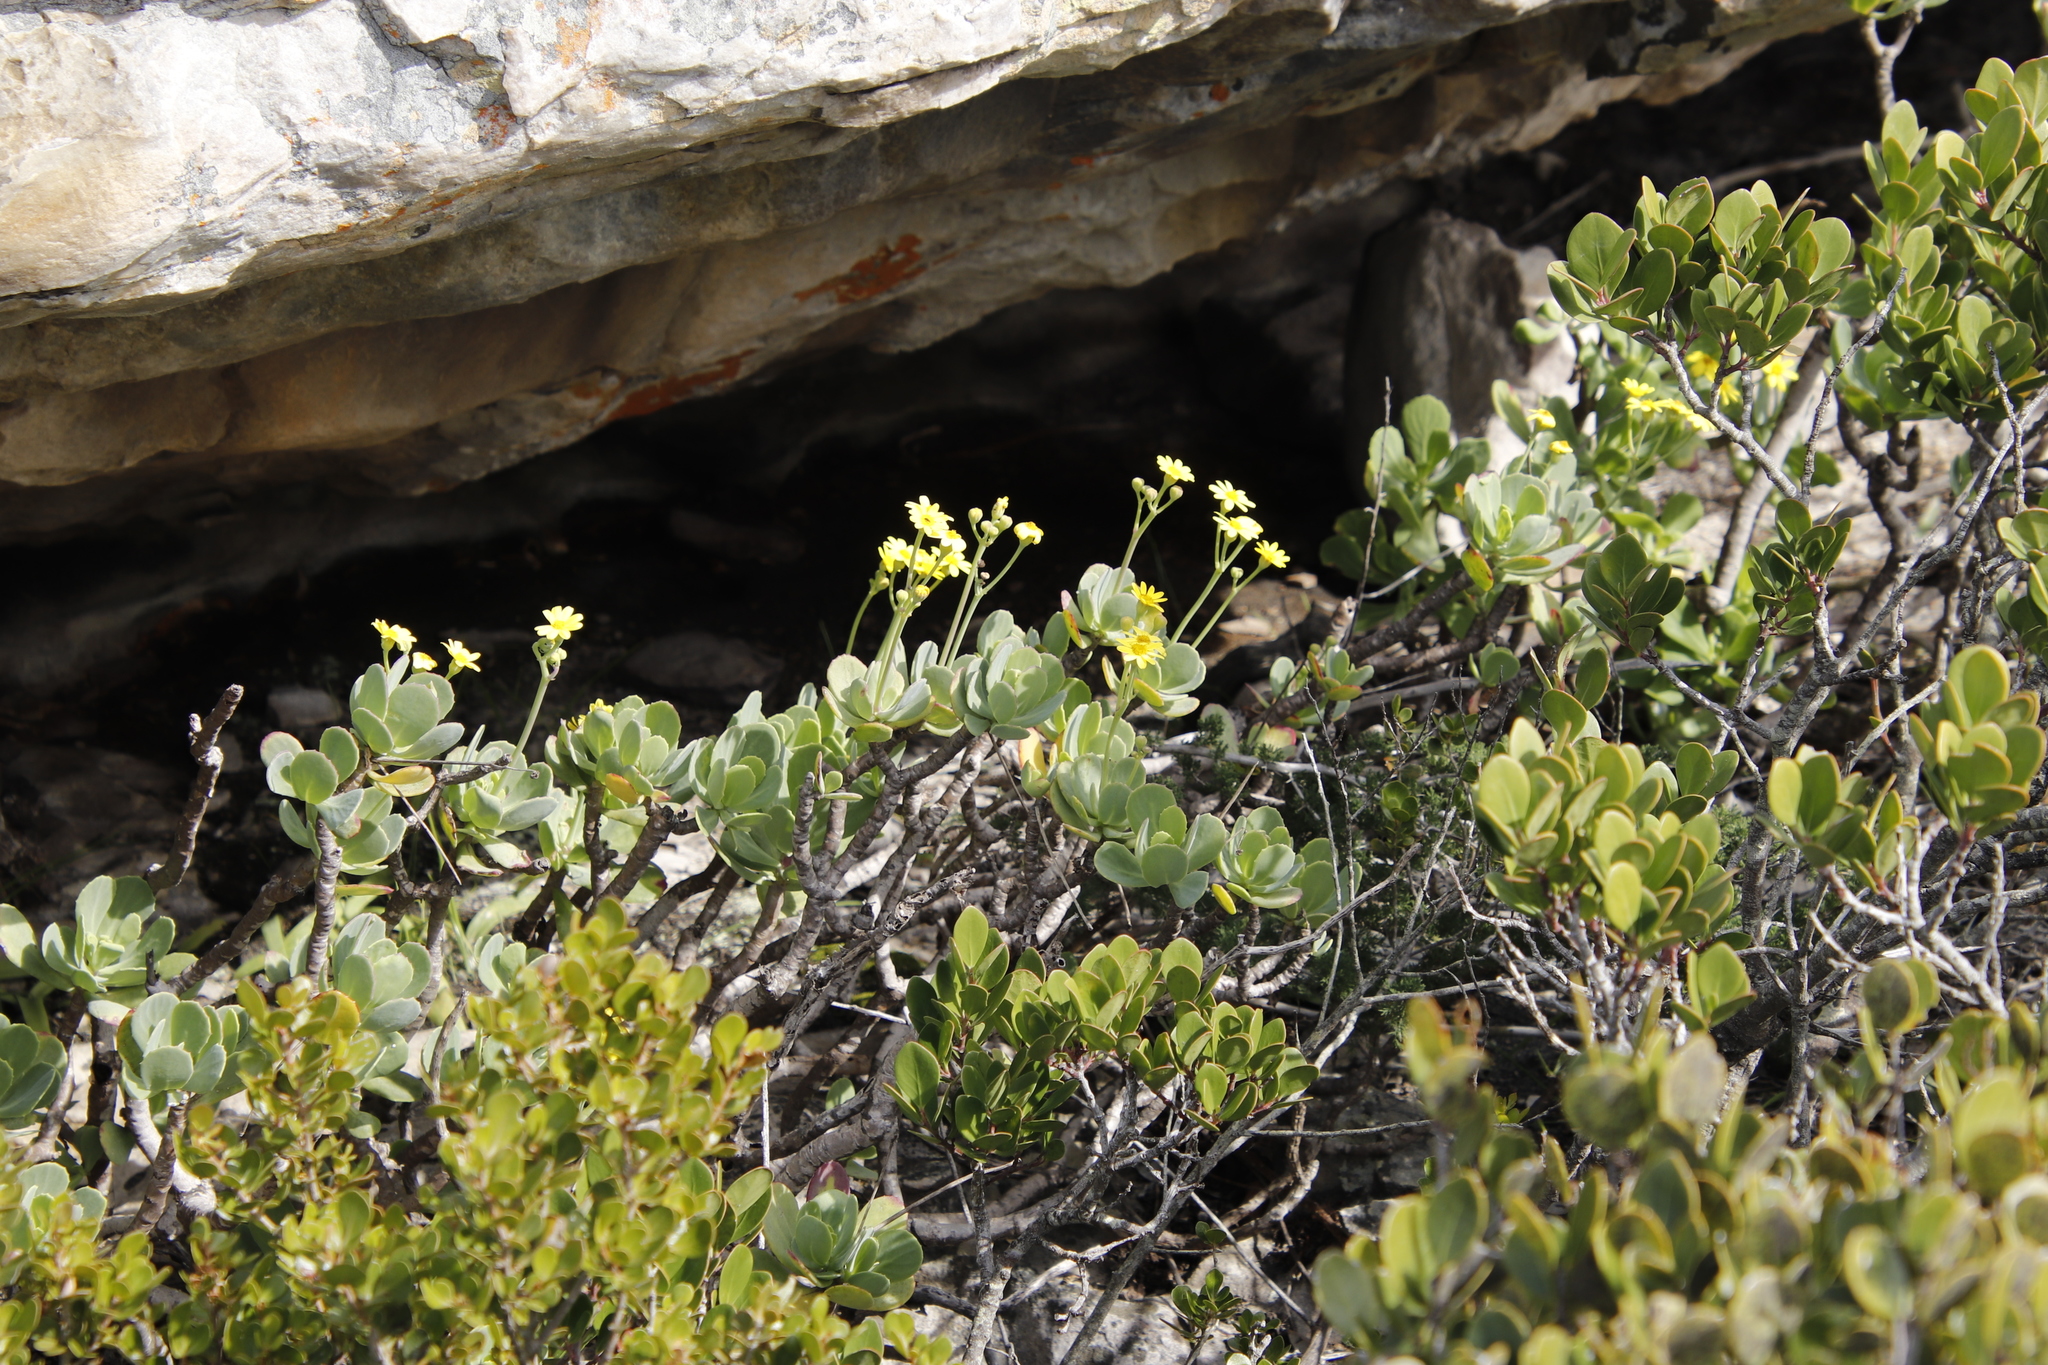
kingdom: Plantae
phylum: Tracheophyta
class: Magnoliopsida
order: Asterales
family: Asteraceae
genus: Othonna
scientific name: Othonna dentata
